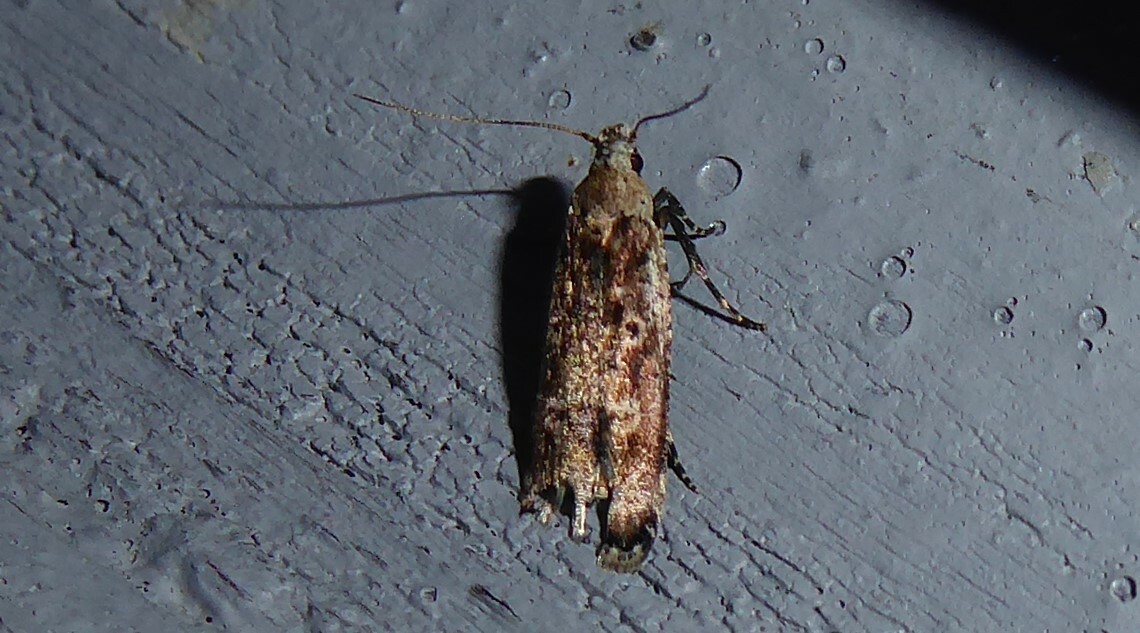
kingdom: Animalia
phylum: Arthropoda
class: Insecta
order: Lepidoptera
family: Gelechiidae
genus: Anisoplaca
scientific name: Anisoplaca achyrota
